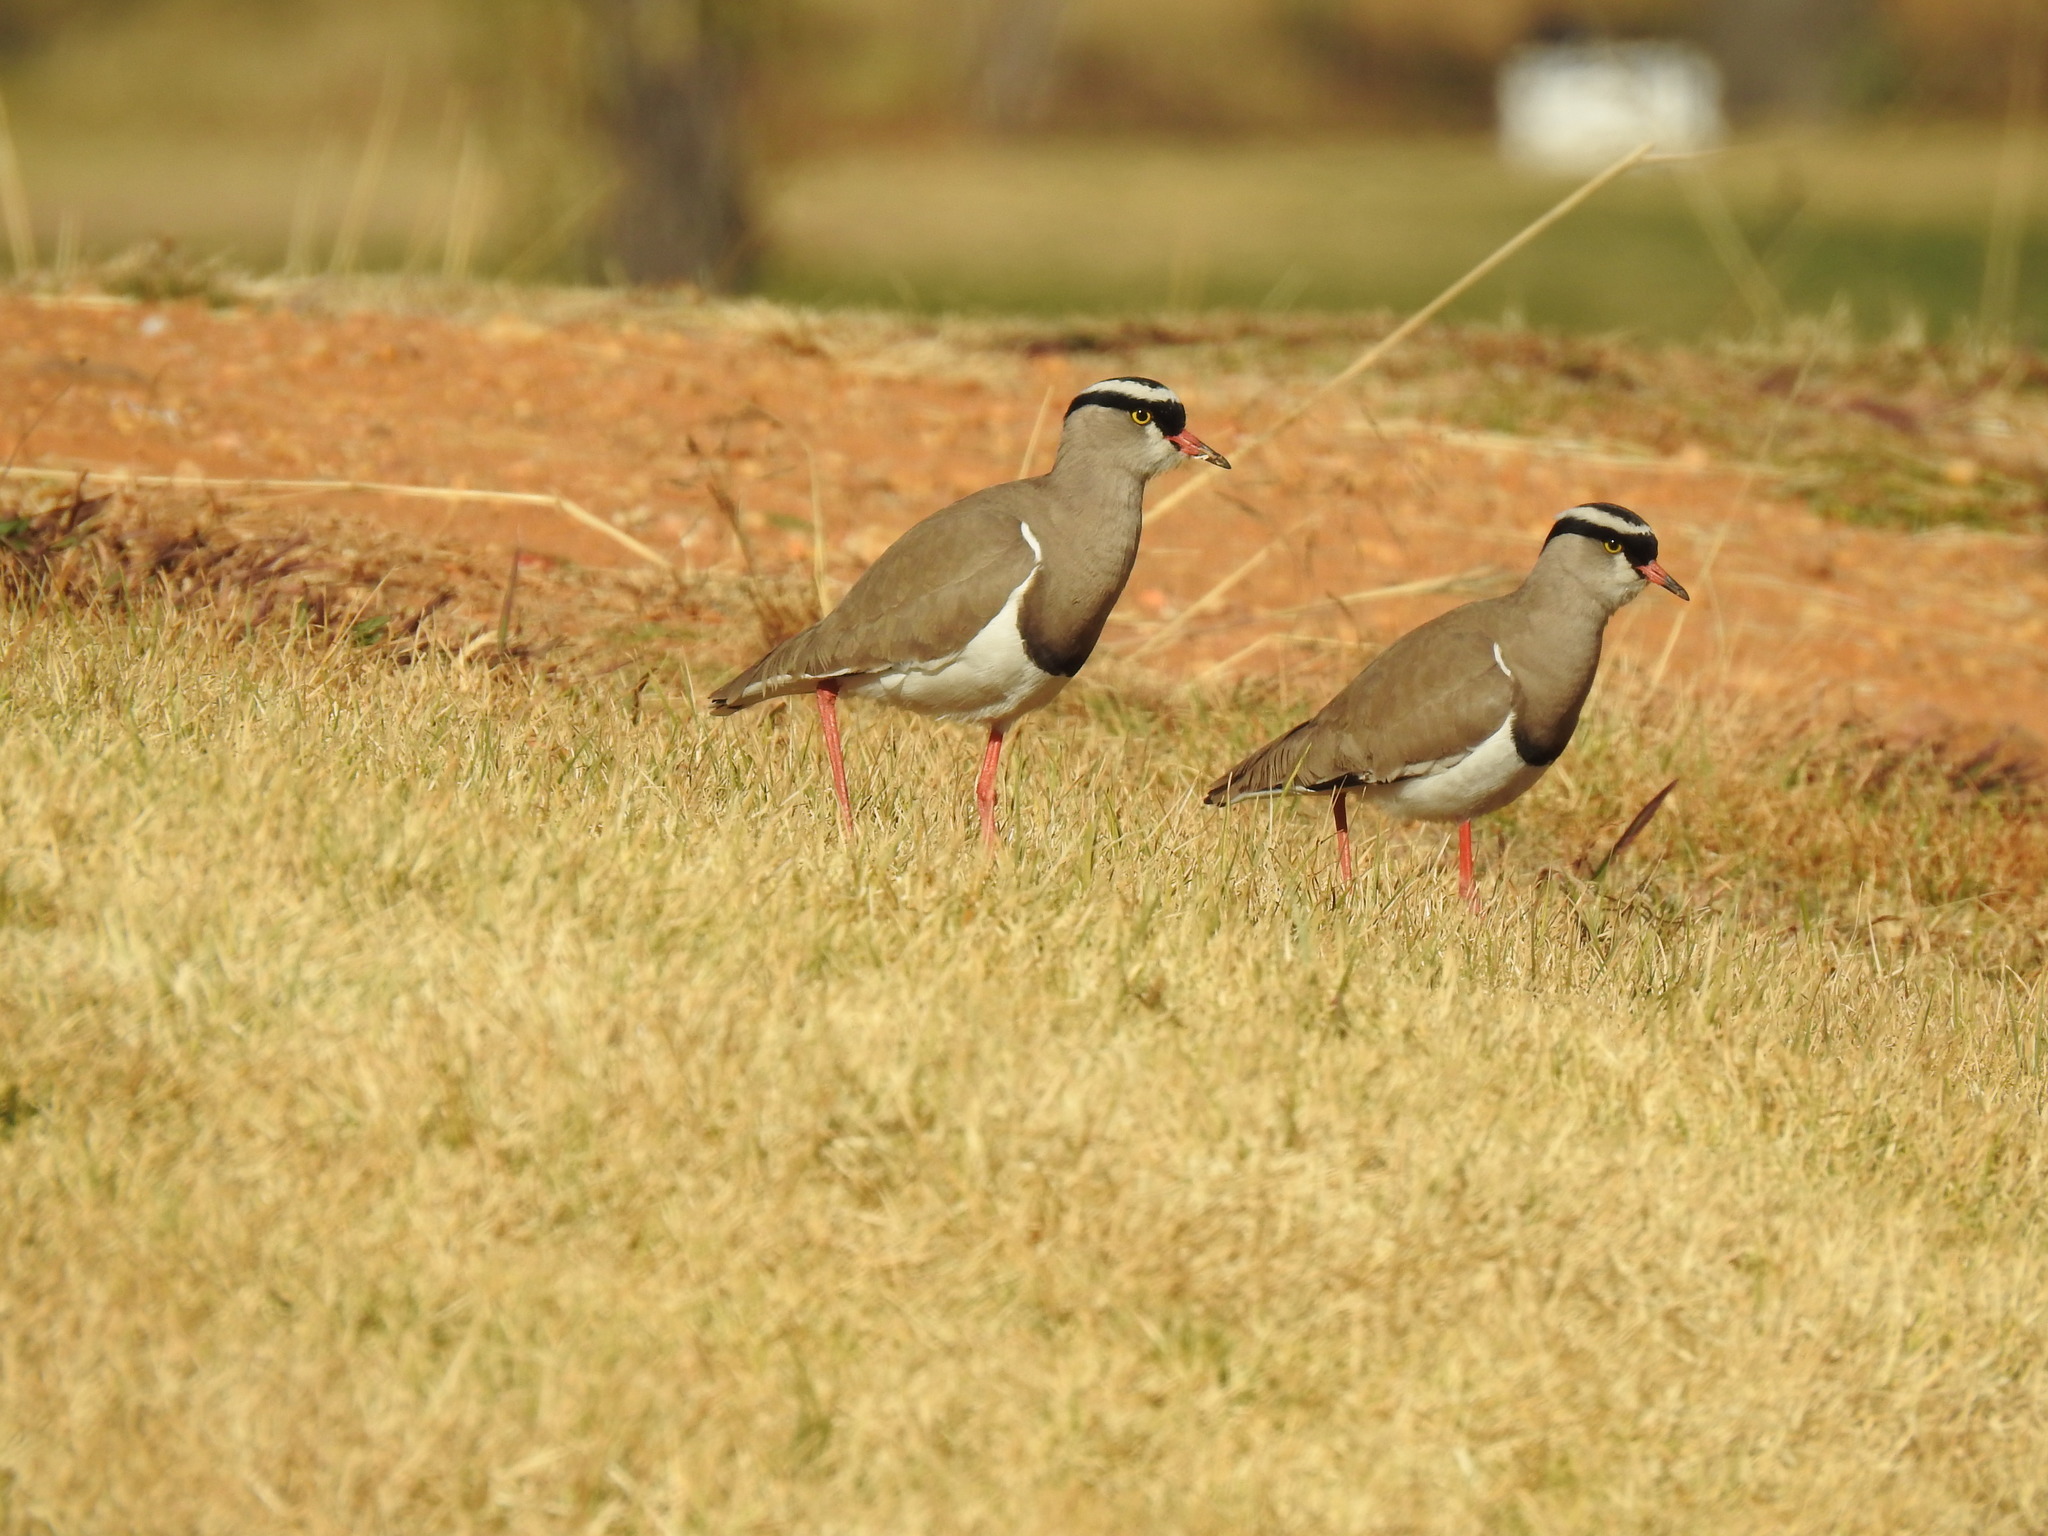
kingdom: Animalia
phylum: Chordata
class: Aves
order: Charadriiformes
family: Charadriidae
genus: Vanellus
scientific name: Vanellus coronatus
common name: Crowned lapwing
